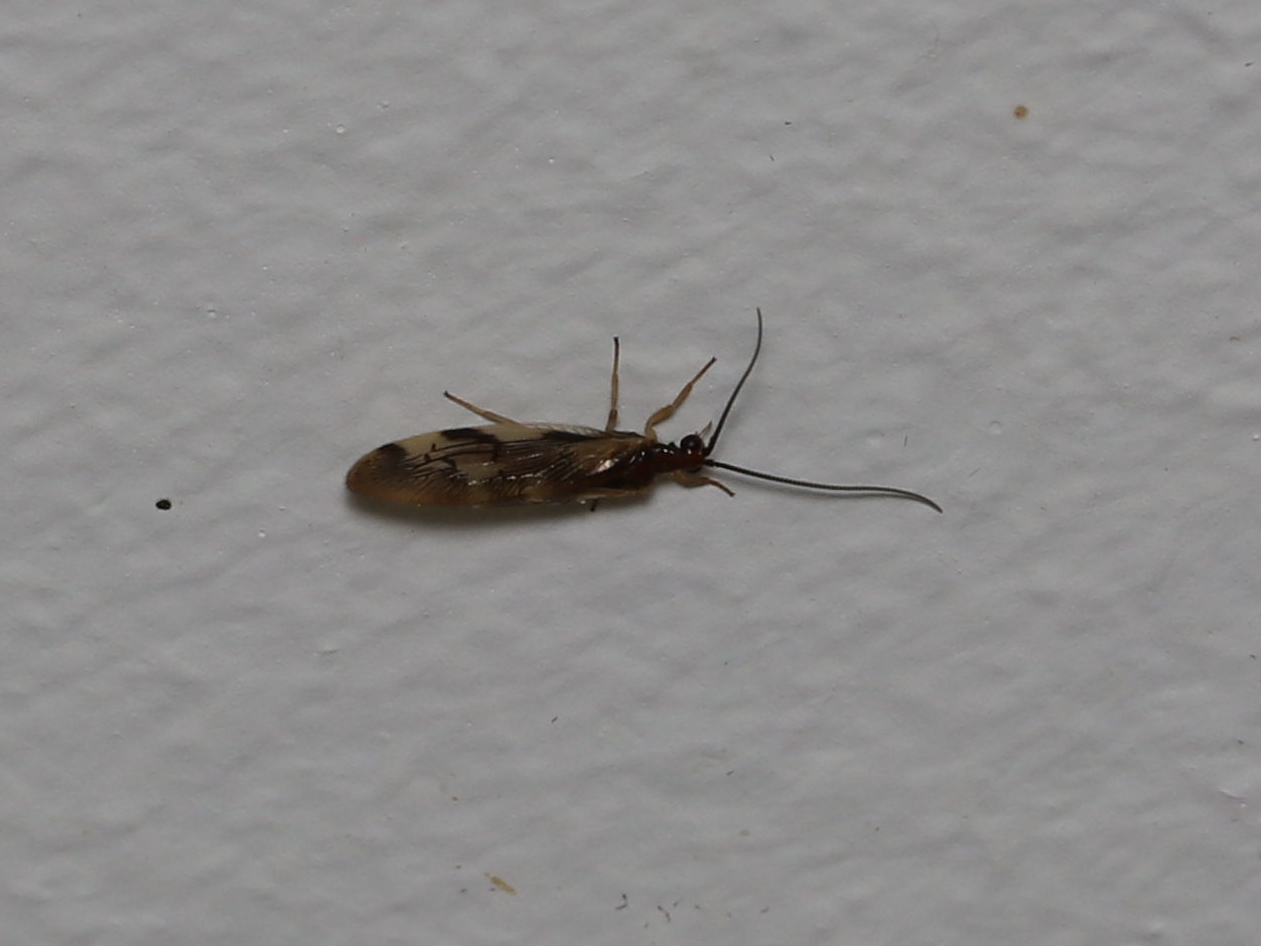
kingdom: Animalia
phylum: Arthropoda
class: Insecta
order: Neuroptera
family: Sisyridae
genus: Climacia
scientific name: Climacia areolaris
